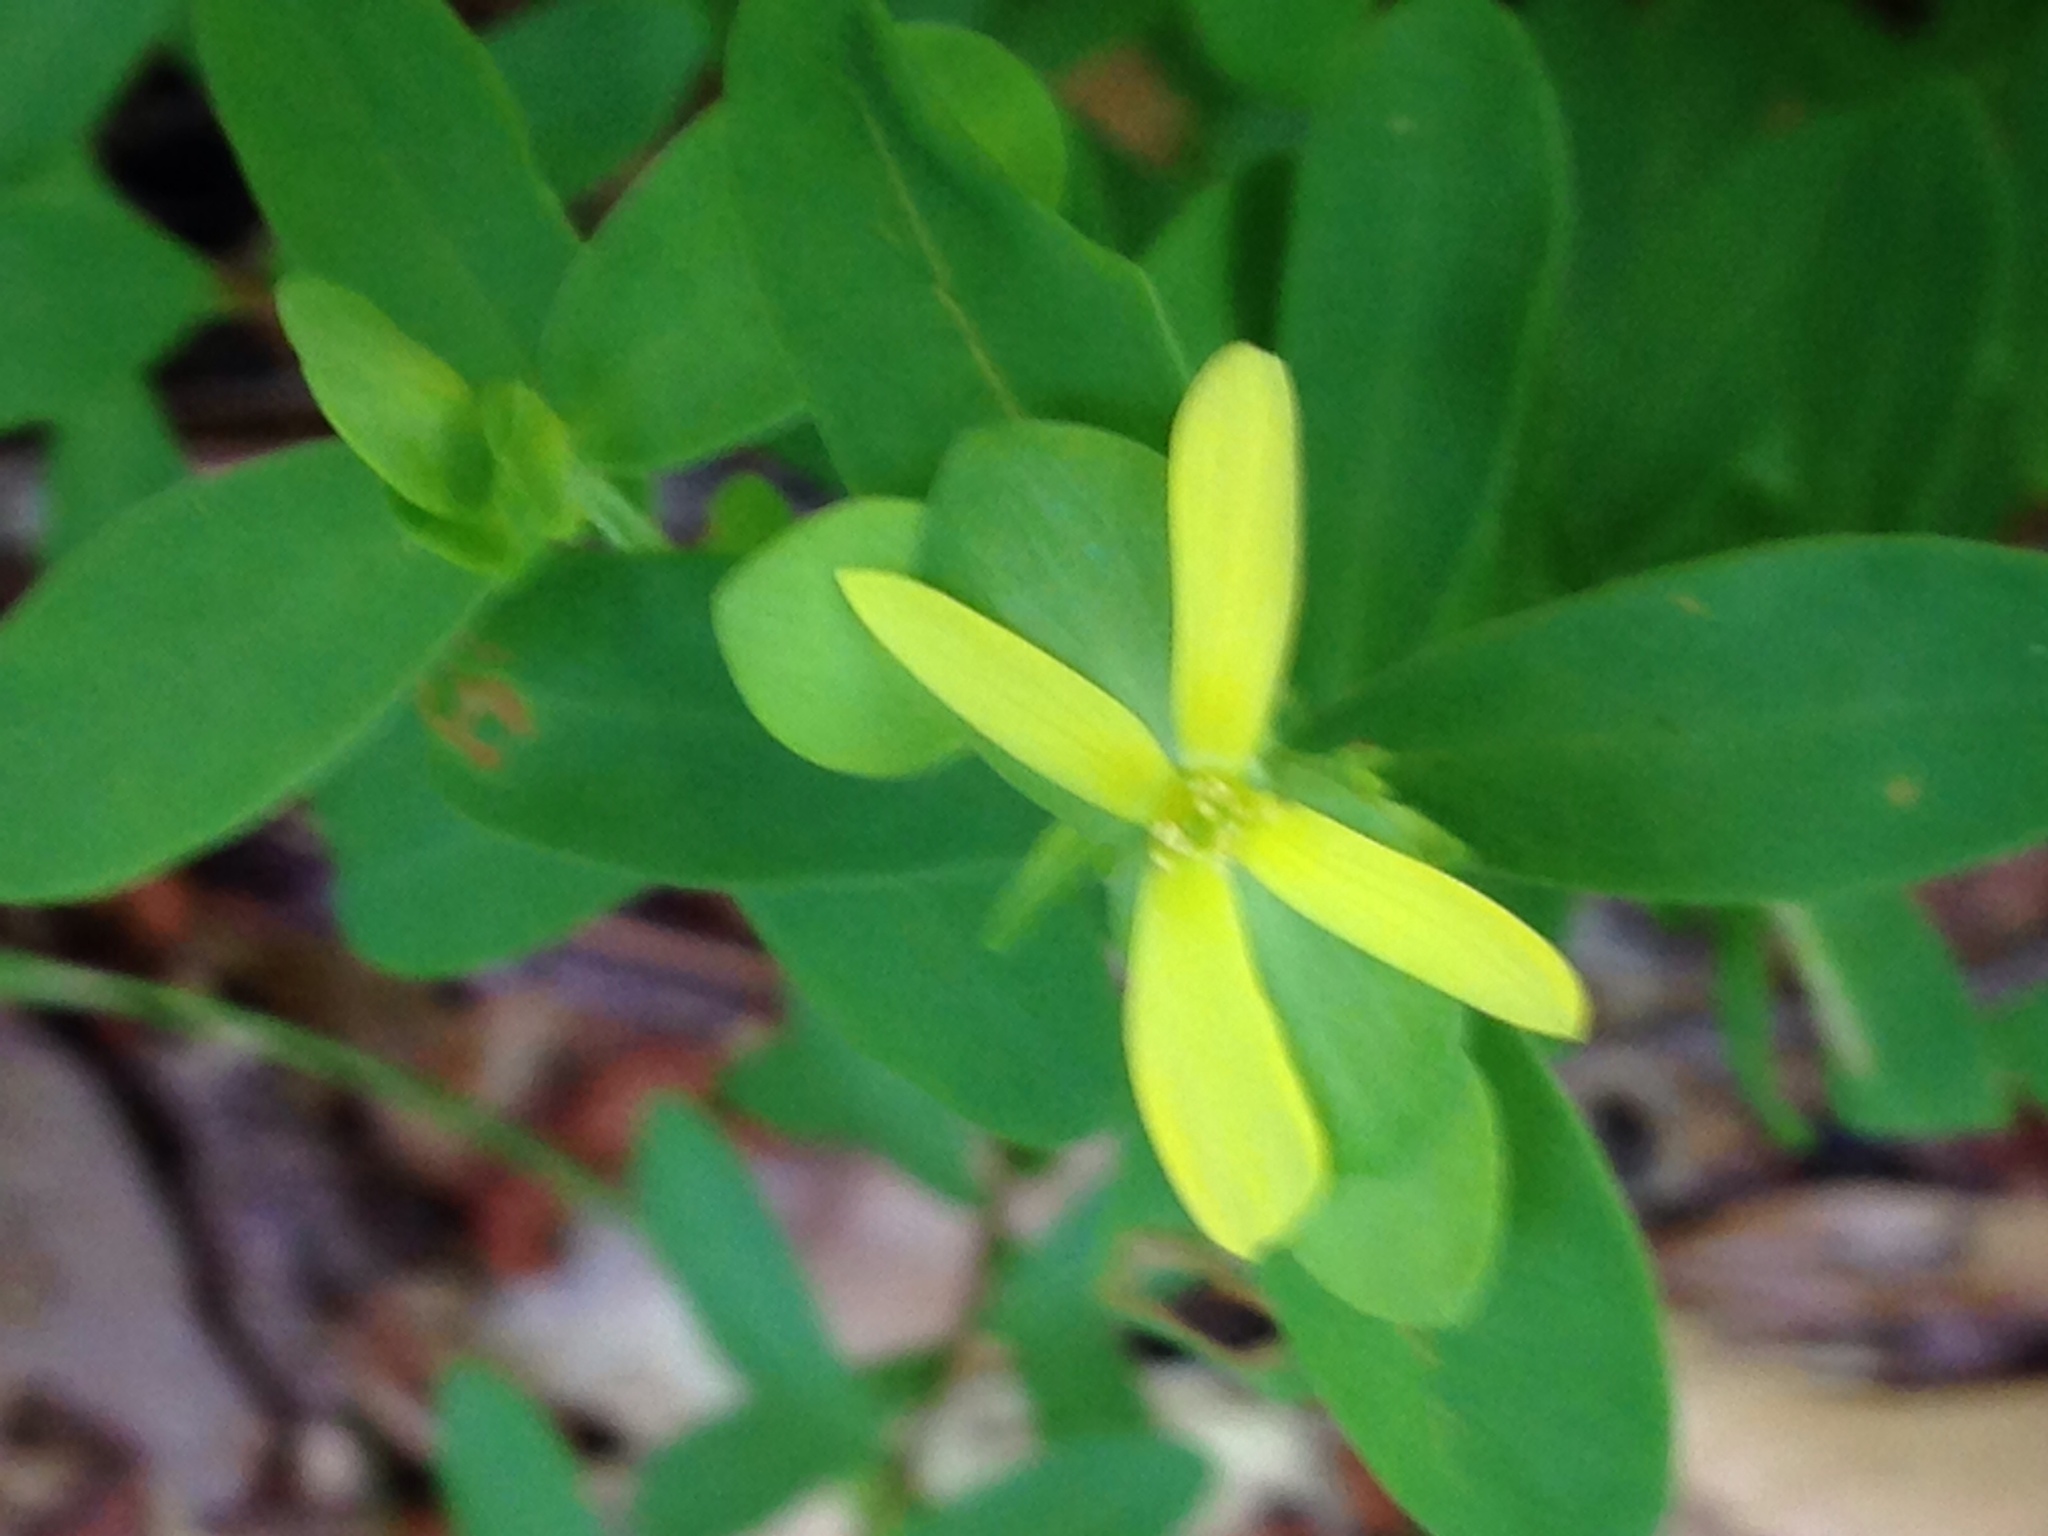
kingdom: Plantae
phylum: Tracheophyta
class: Magnoliopsida
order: Malpighiales
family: Hypericaceae
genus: Hypericum
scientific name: Hypericum hypericoides
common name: St. andrew's cross
